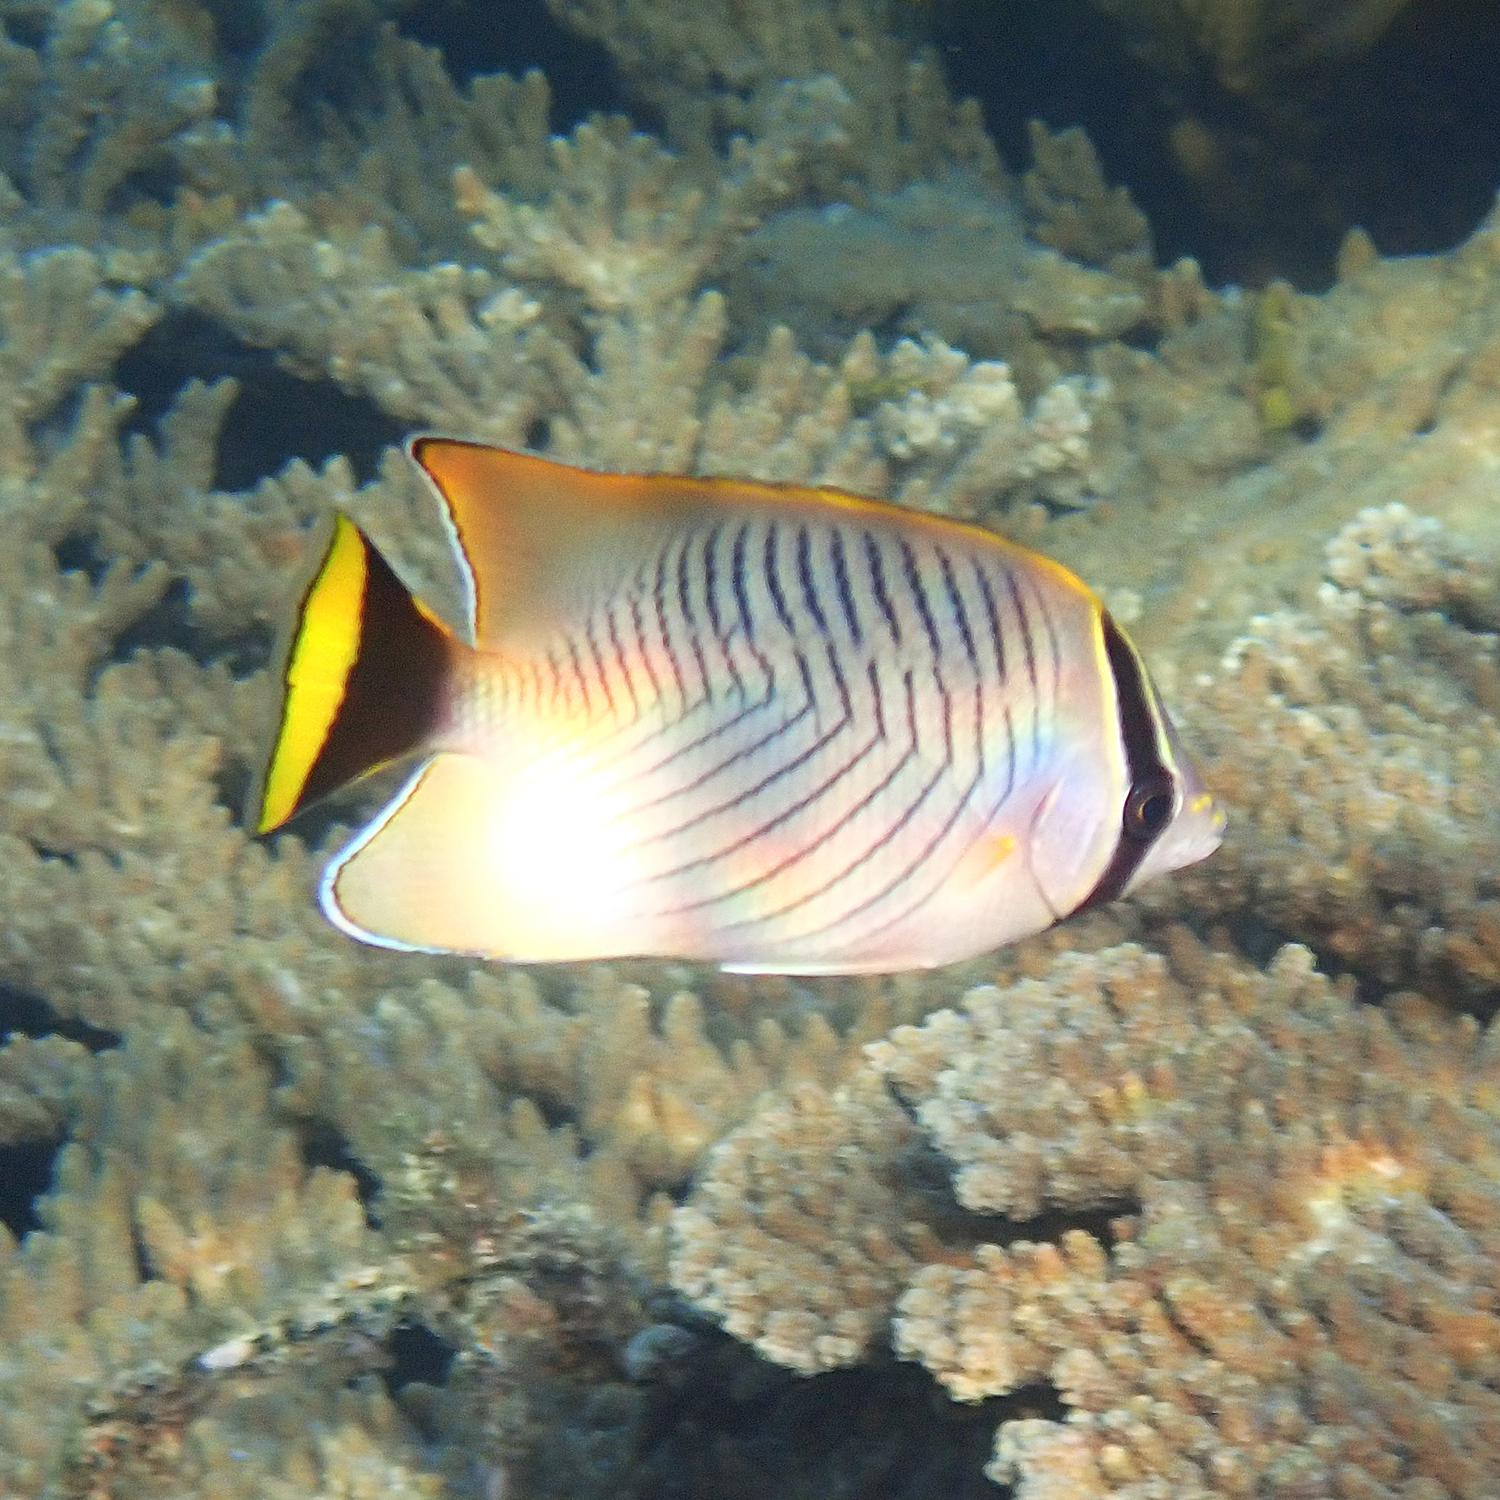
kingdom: Animalia
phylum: Chordata
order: Perciformes
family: Chaetodontidae
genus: Chaetodon
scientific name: Chaetodon trifascialis
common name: Chevroned butterflyfish
